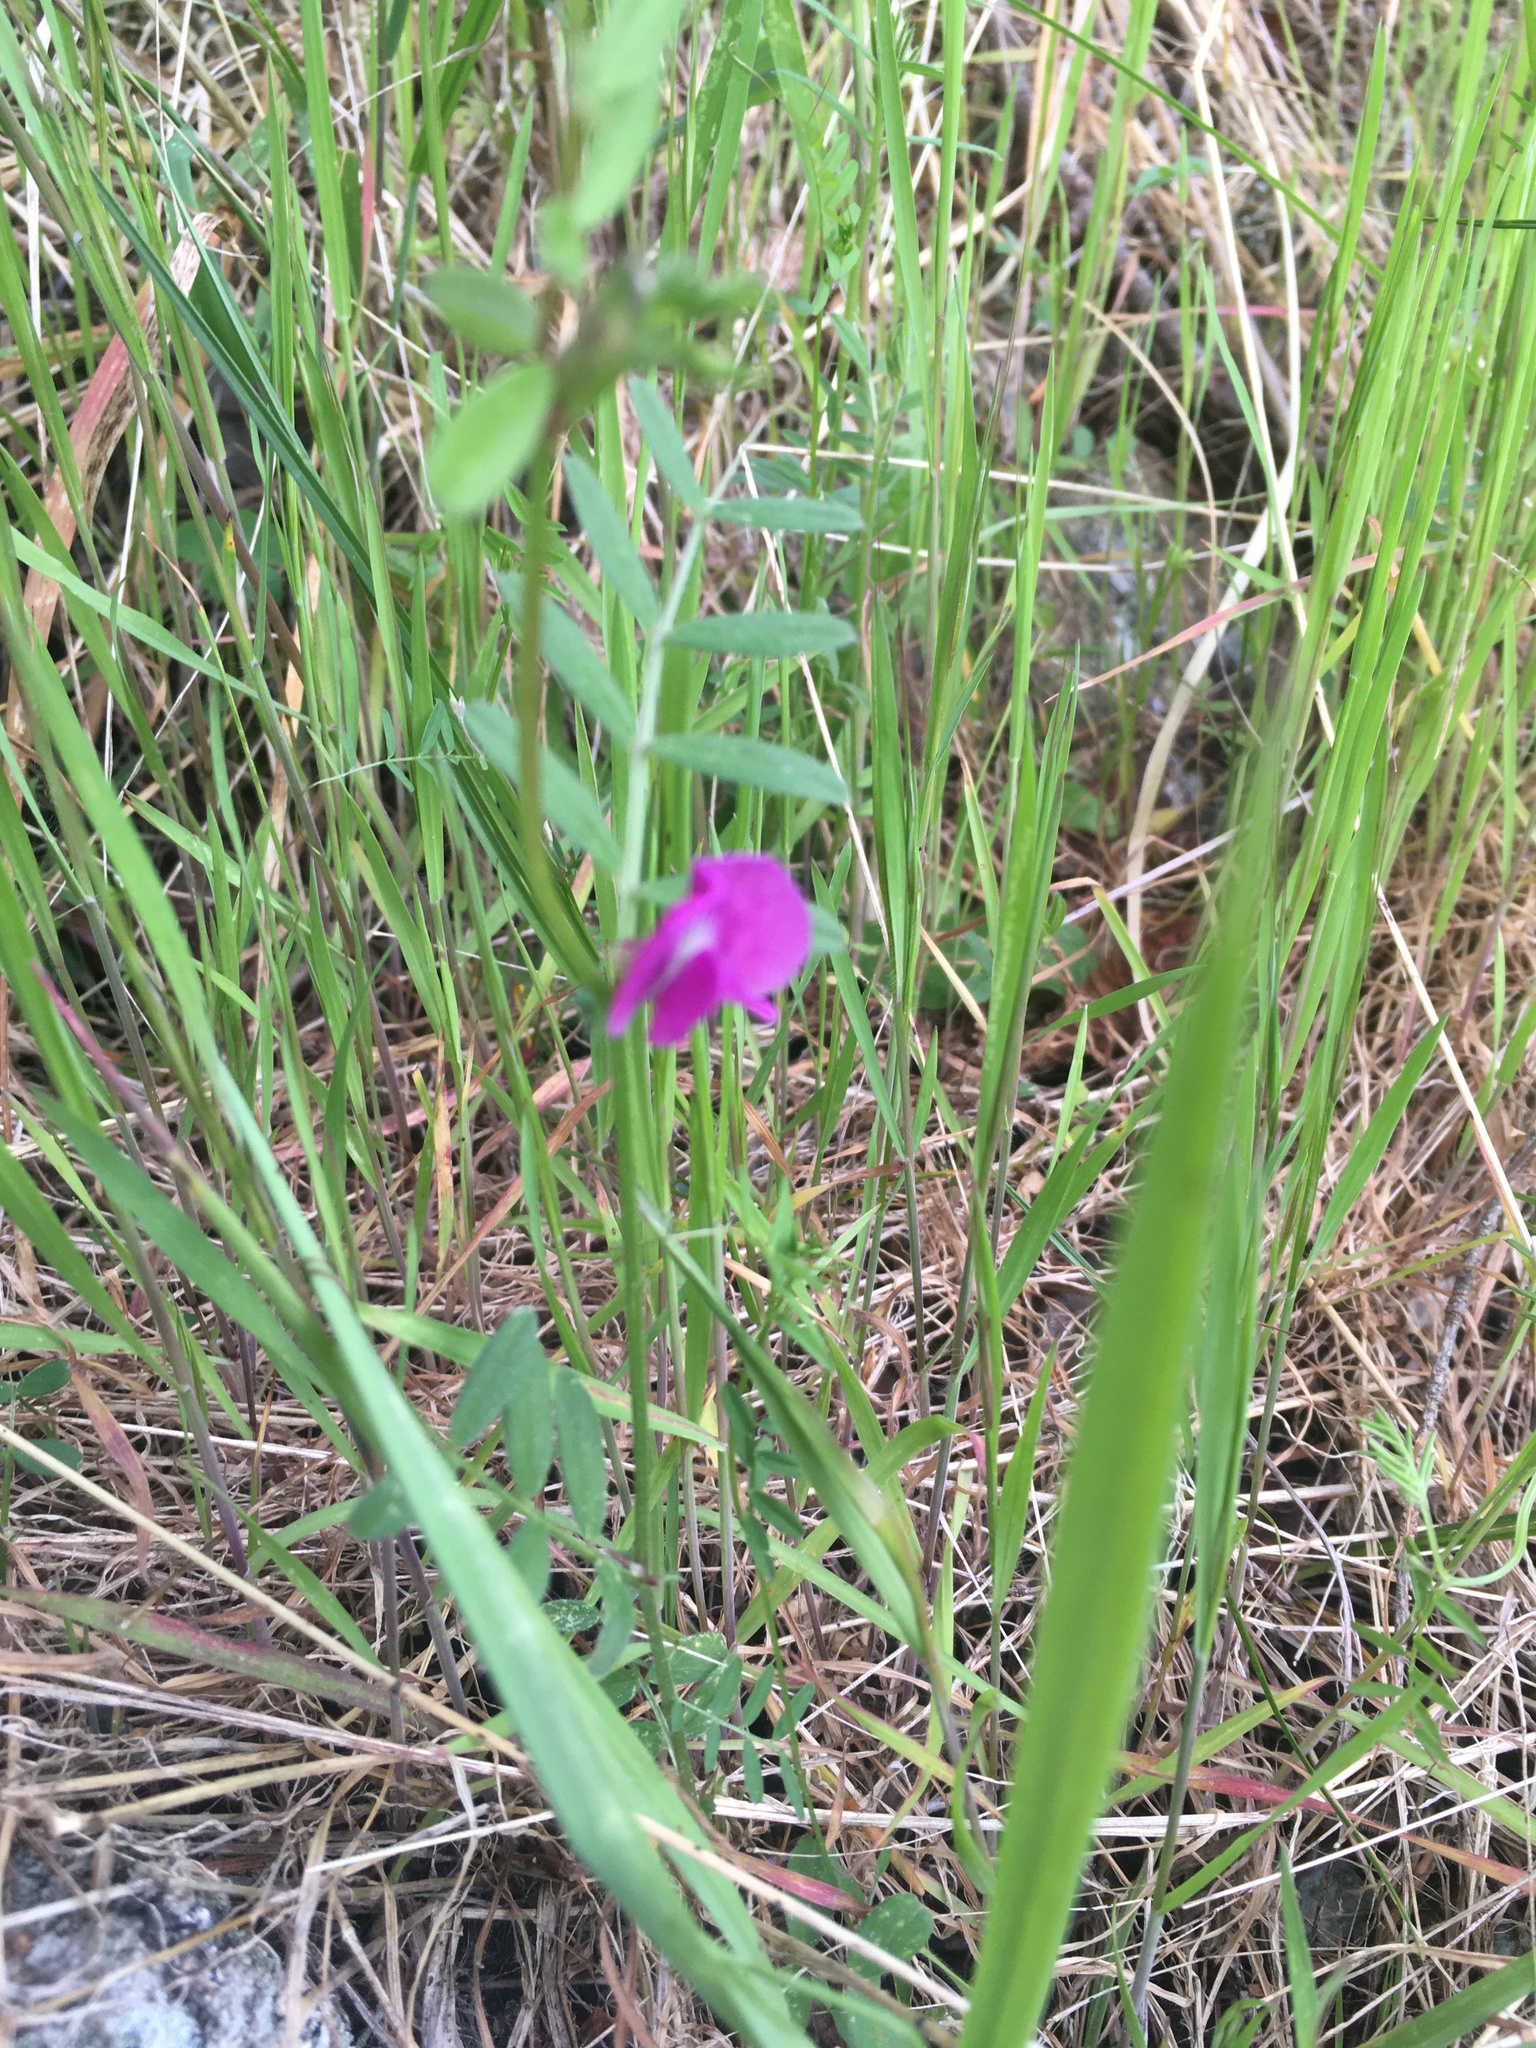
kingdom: Plantae
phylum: Tracheophyta
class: Magnoliopsida
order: Fabales
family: Fabaceae
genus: Vicia
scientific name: Vicia sativa
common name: Garden vetch
